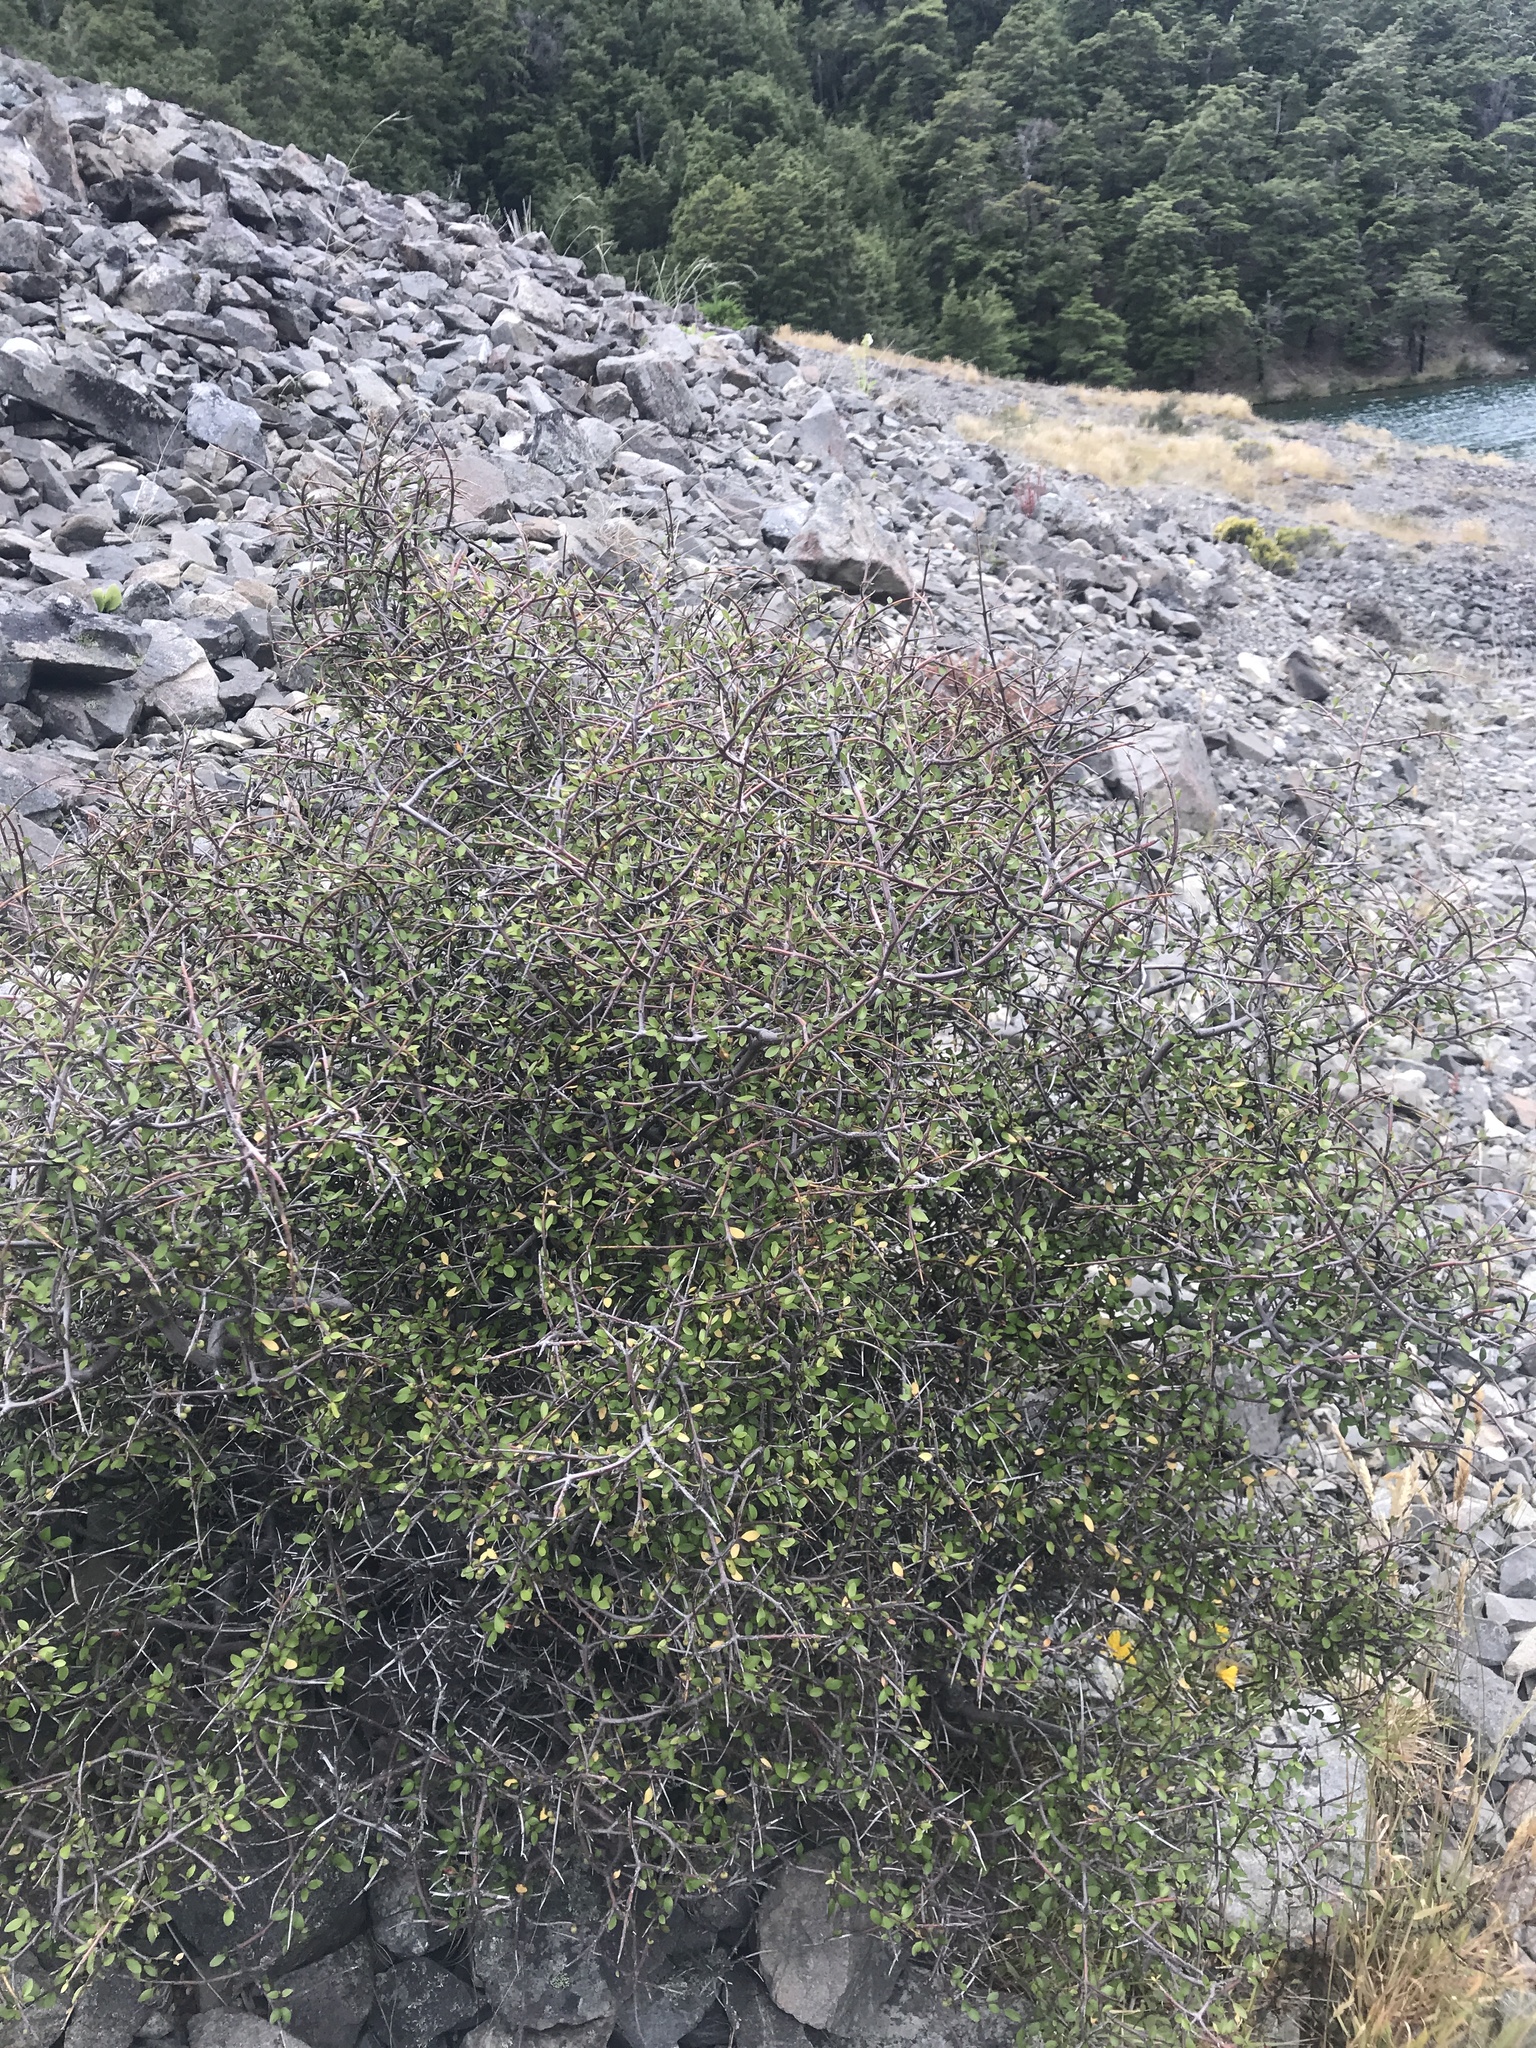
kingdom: Plantae
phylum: Tracheophyta
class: Magnoliopsida
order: Oxalidales
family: Elaeocarpaceae
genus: Aristotelia
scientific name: Aristotelia fruticosa
